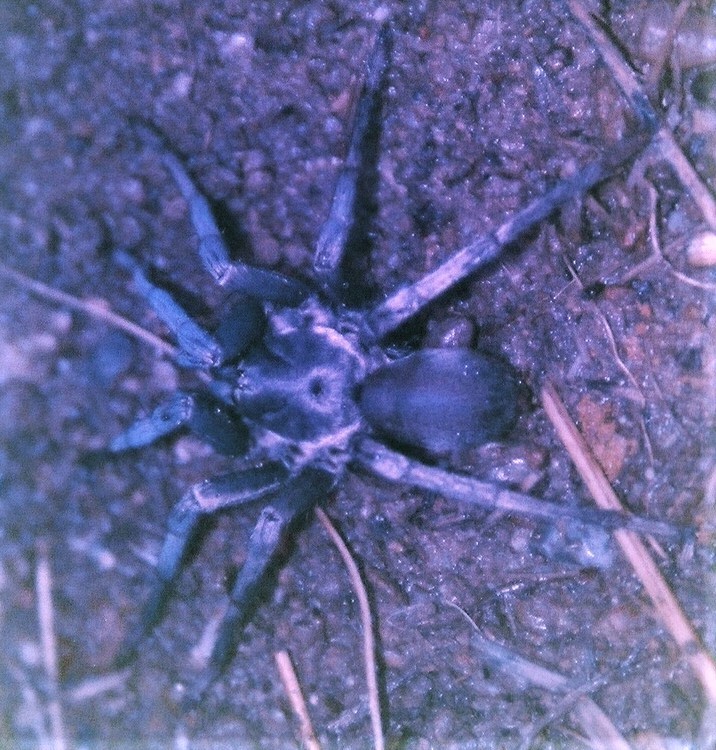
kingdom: Animalia
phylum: Arthropoda
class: Arachnida
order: Araneae
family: Nemesiidae
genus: Calisoga
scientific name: Calisoga longitarsis
